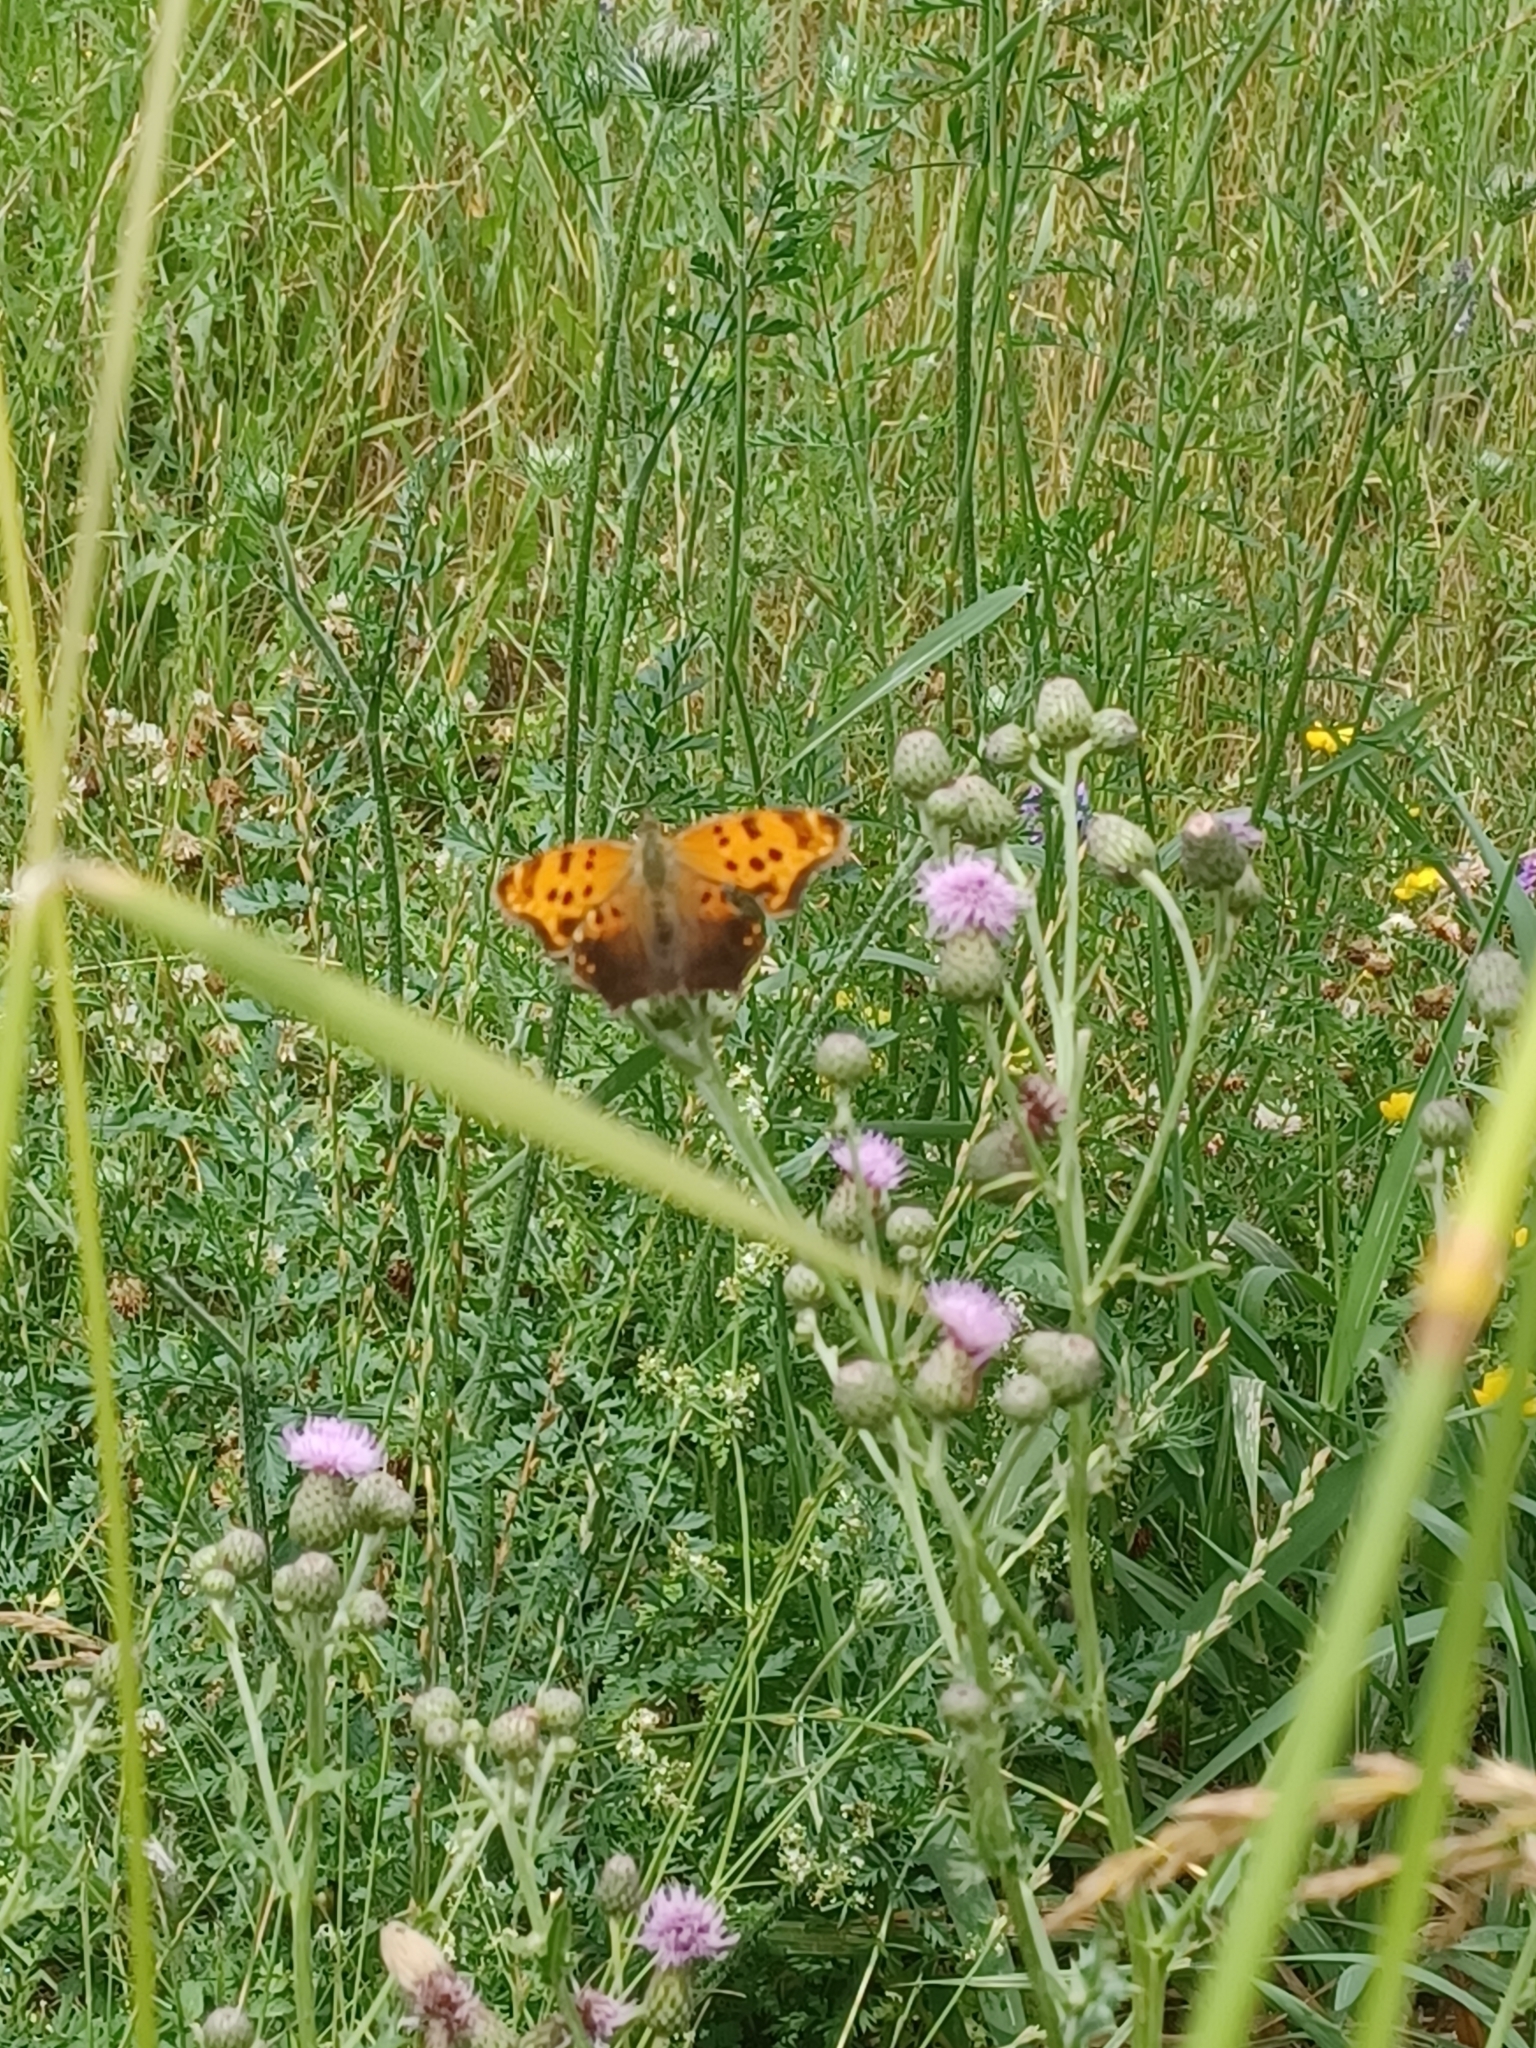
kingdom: Animalia
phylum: Arthropoda
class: Insecta
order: Lepidoptera
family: Nymphalidae
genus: Polygonia
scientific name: Polygonia comma
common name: Eastern comma
